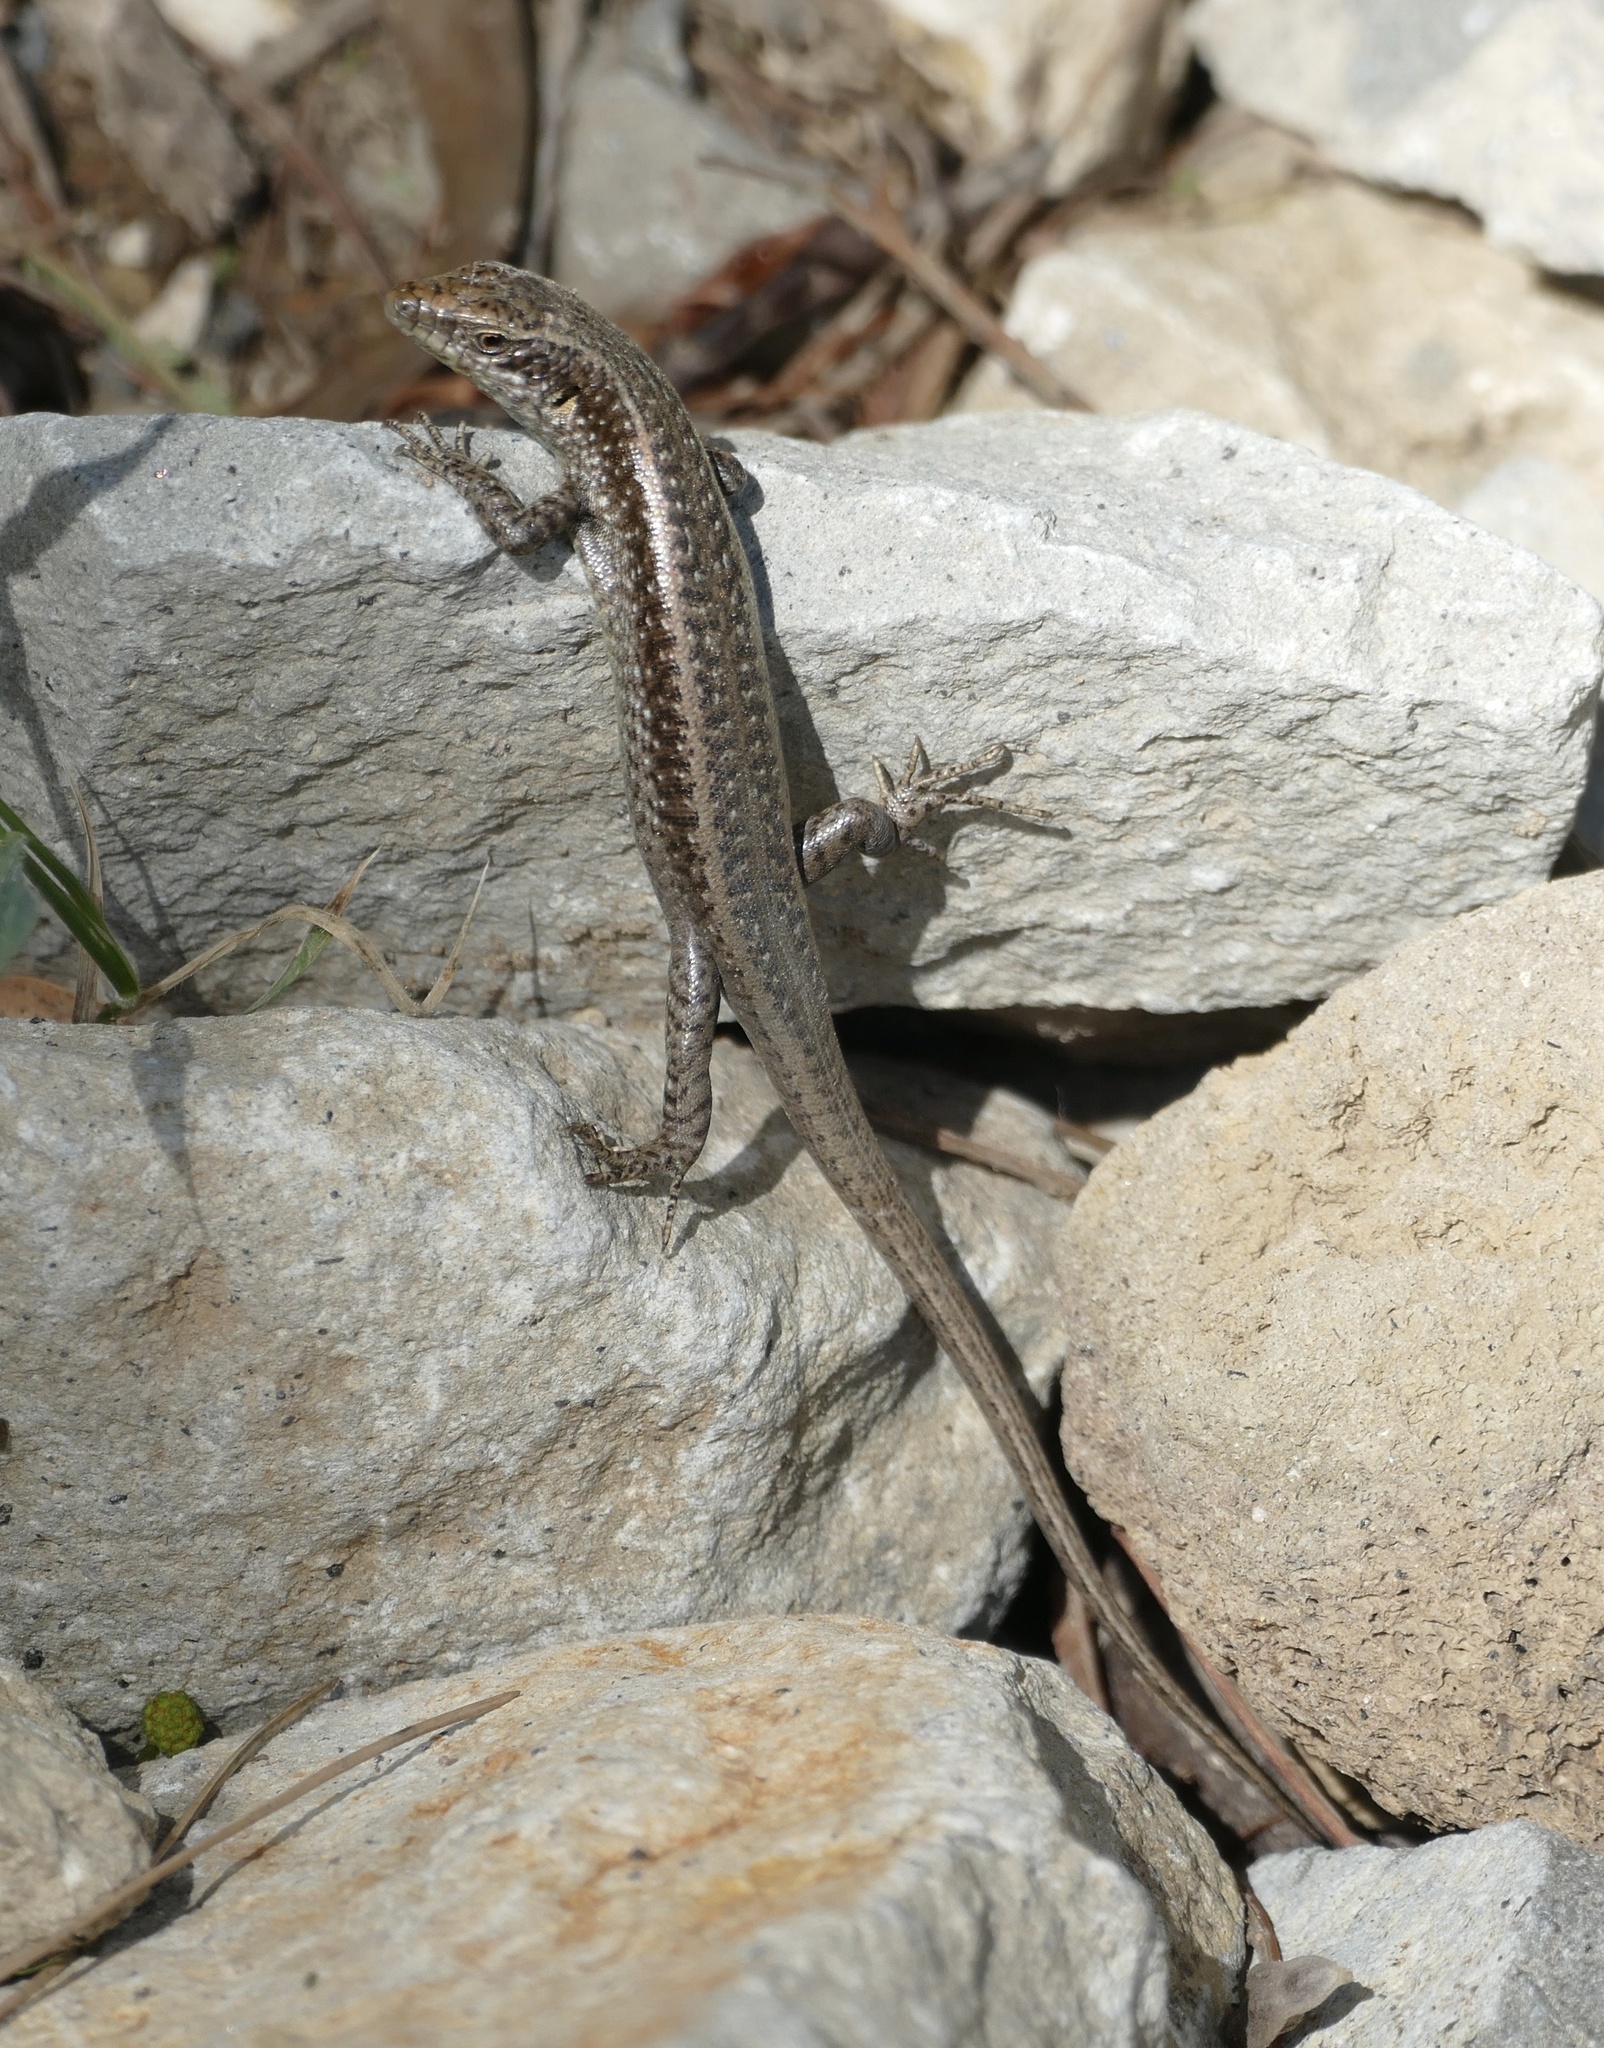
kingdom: Animalia
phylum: Chordata
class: Squamata
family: Scincidae
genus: Chioninia
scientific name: Chioninia fogoensis
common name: Fogo's mabuya
